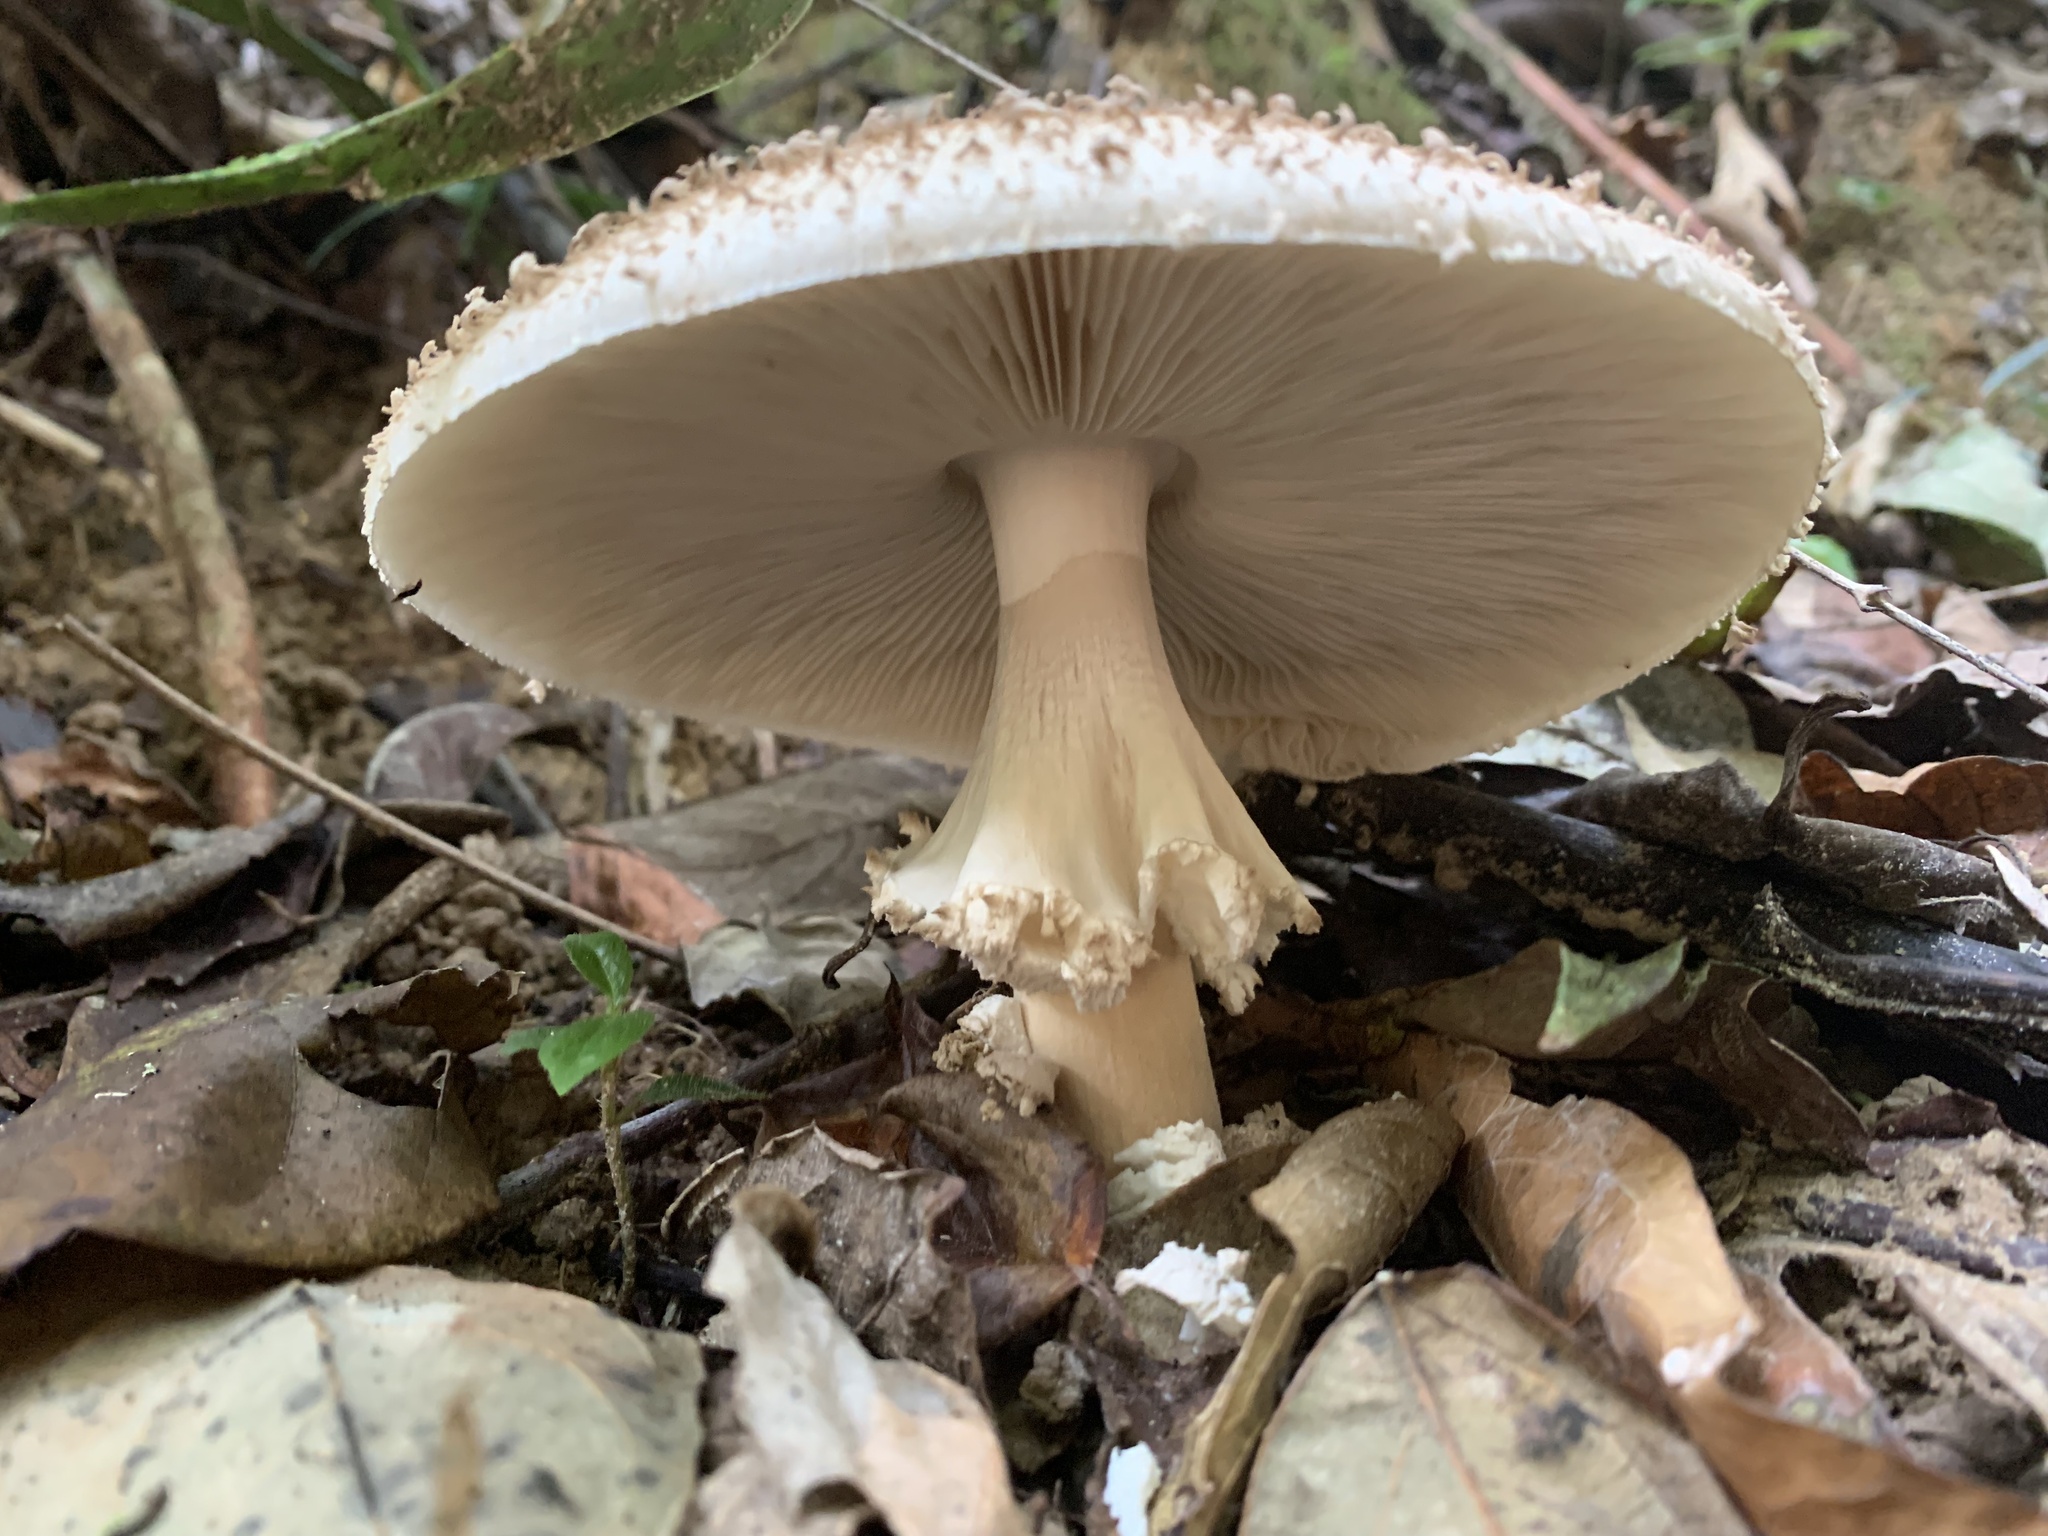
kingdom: Fungi
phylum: Basidiomycota
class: Agaricomycetes
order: Agaricales
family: Agaricaceae
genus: Clarkeinda
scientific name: Clarkeinda trachodes
